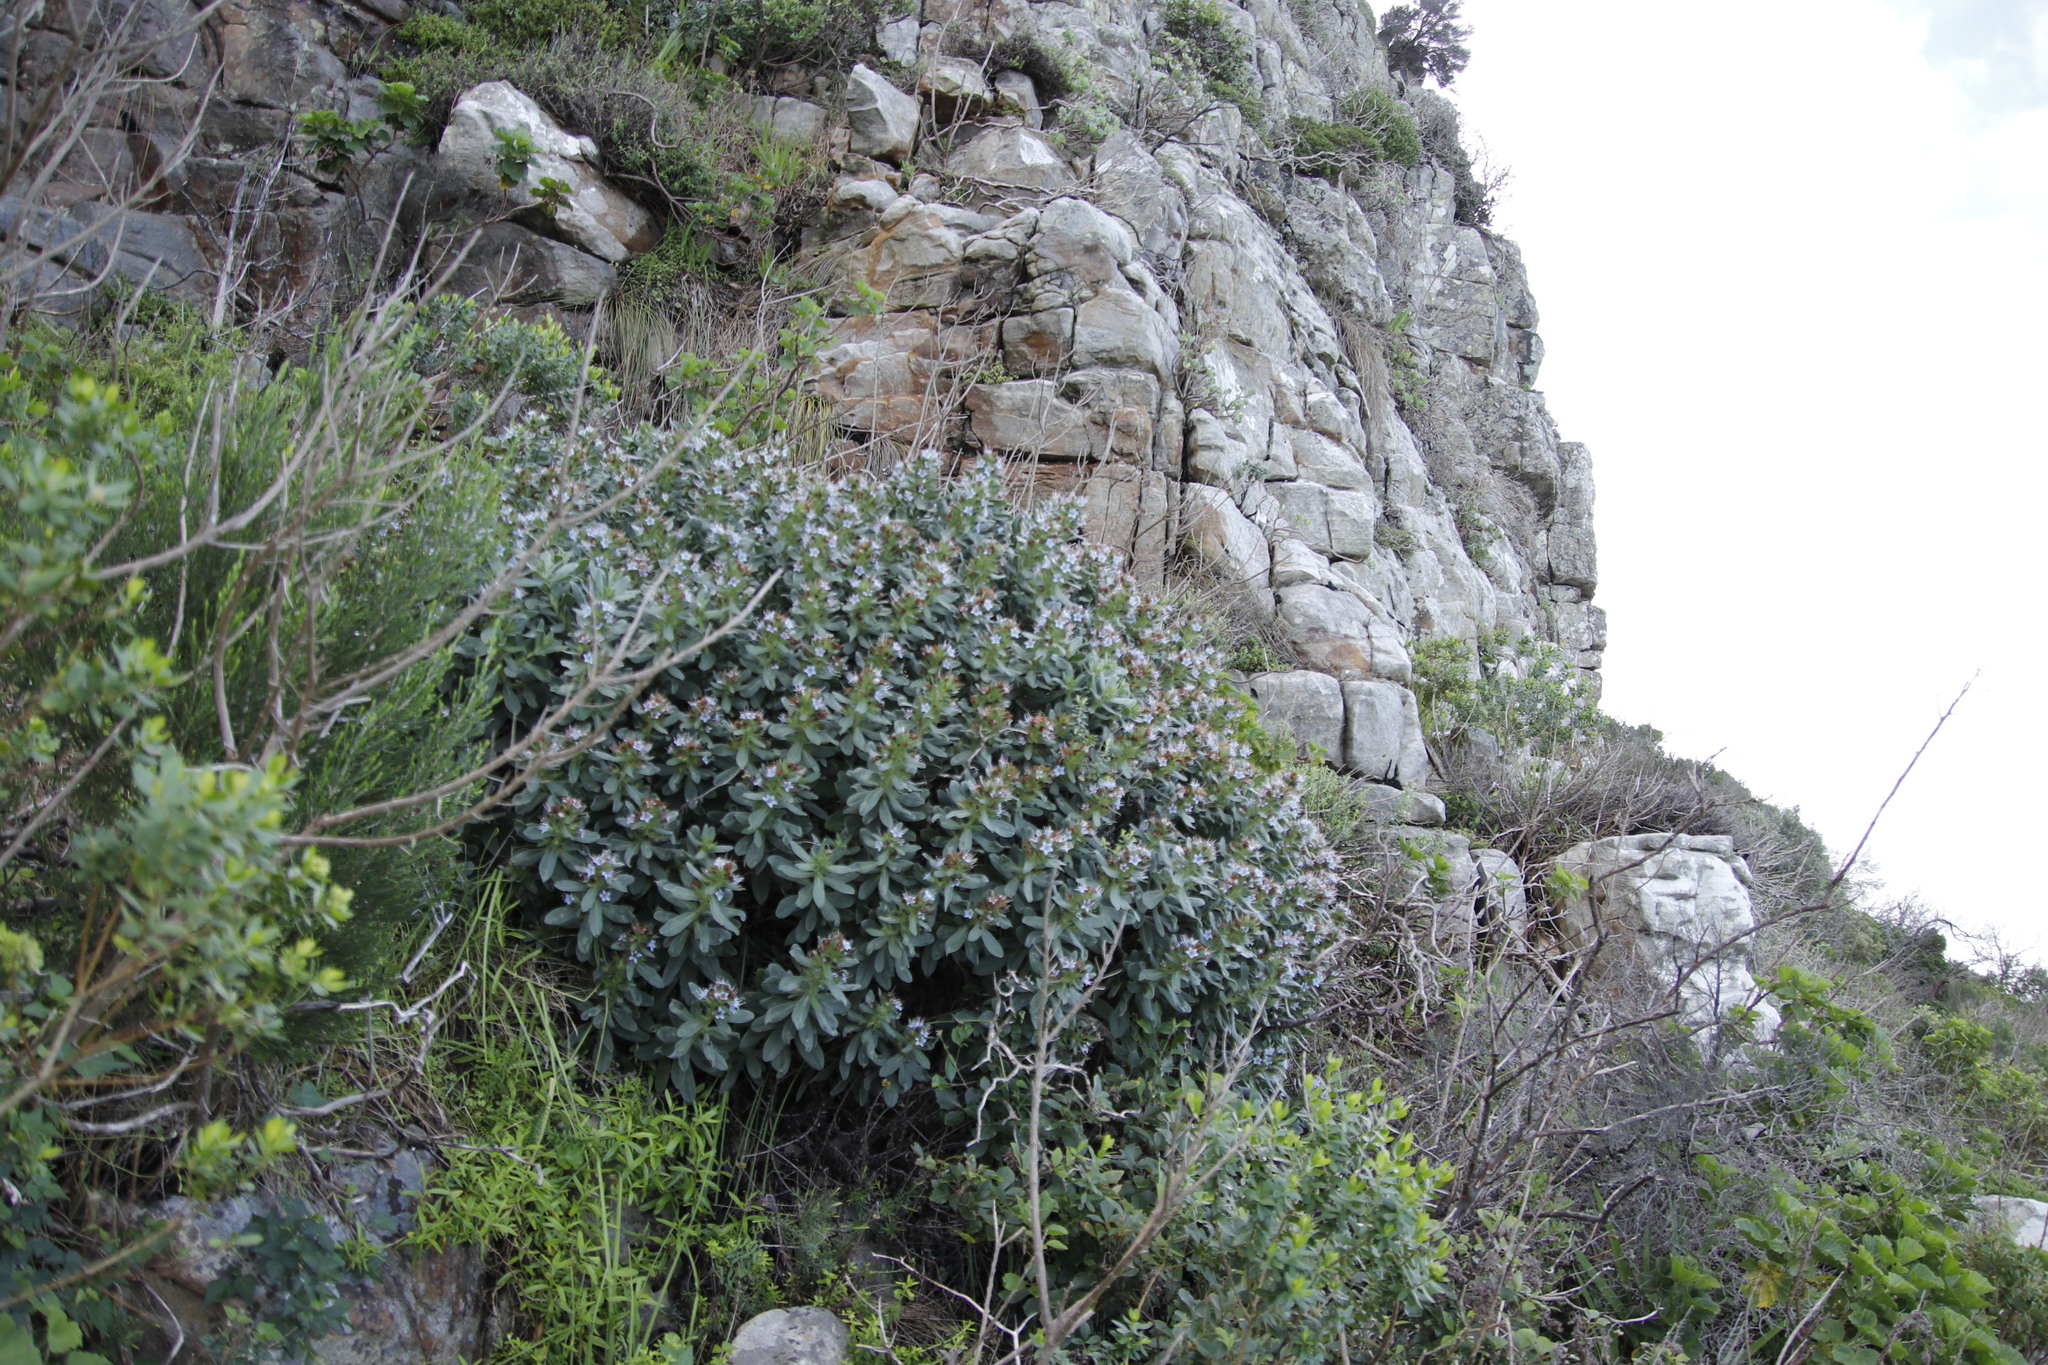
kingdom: Plantae
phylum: Tracheophyta
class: Magnoliopsida
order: Boraginales
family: Boraginaceae
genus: Lobostemon
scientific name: Lobostemon montanus
